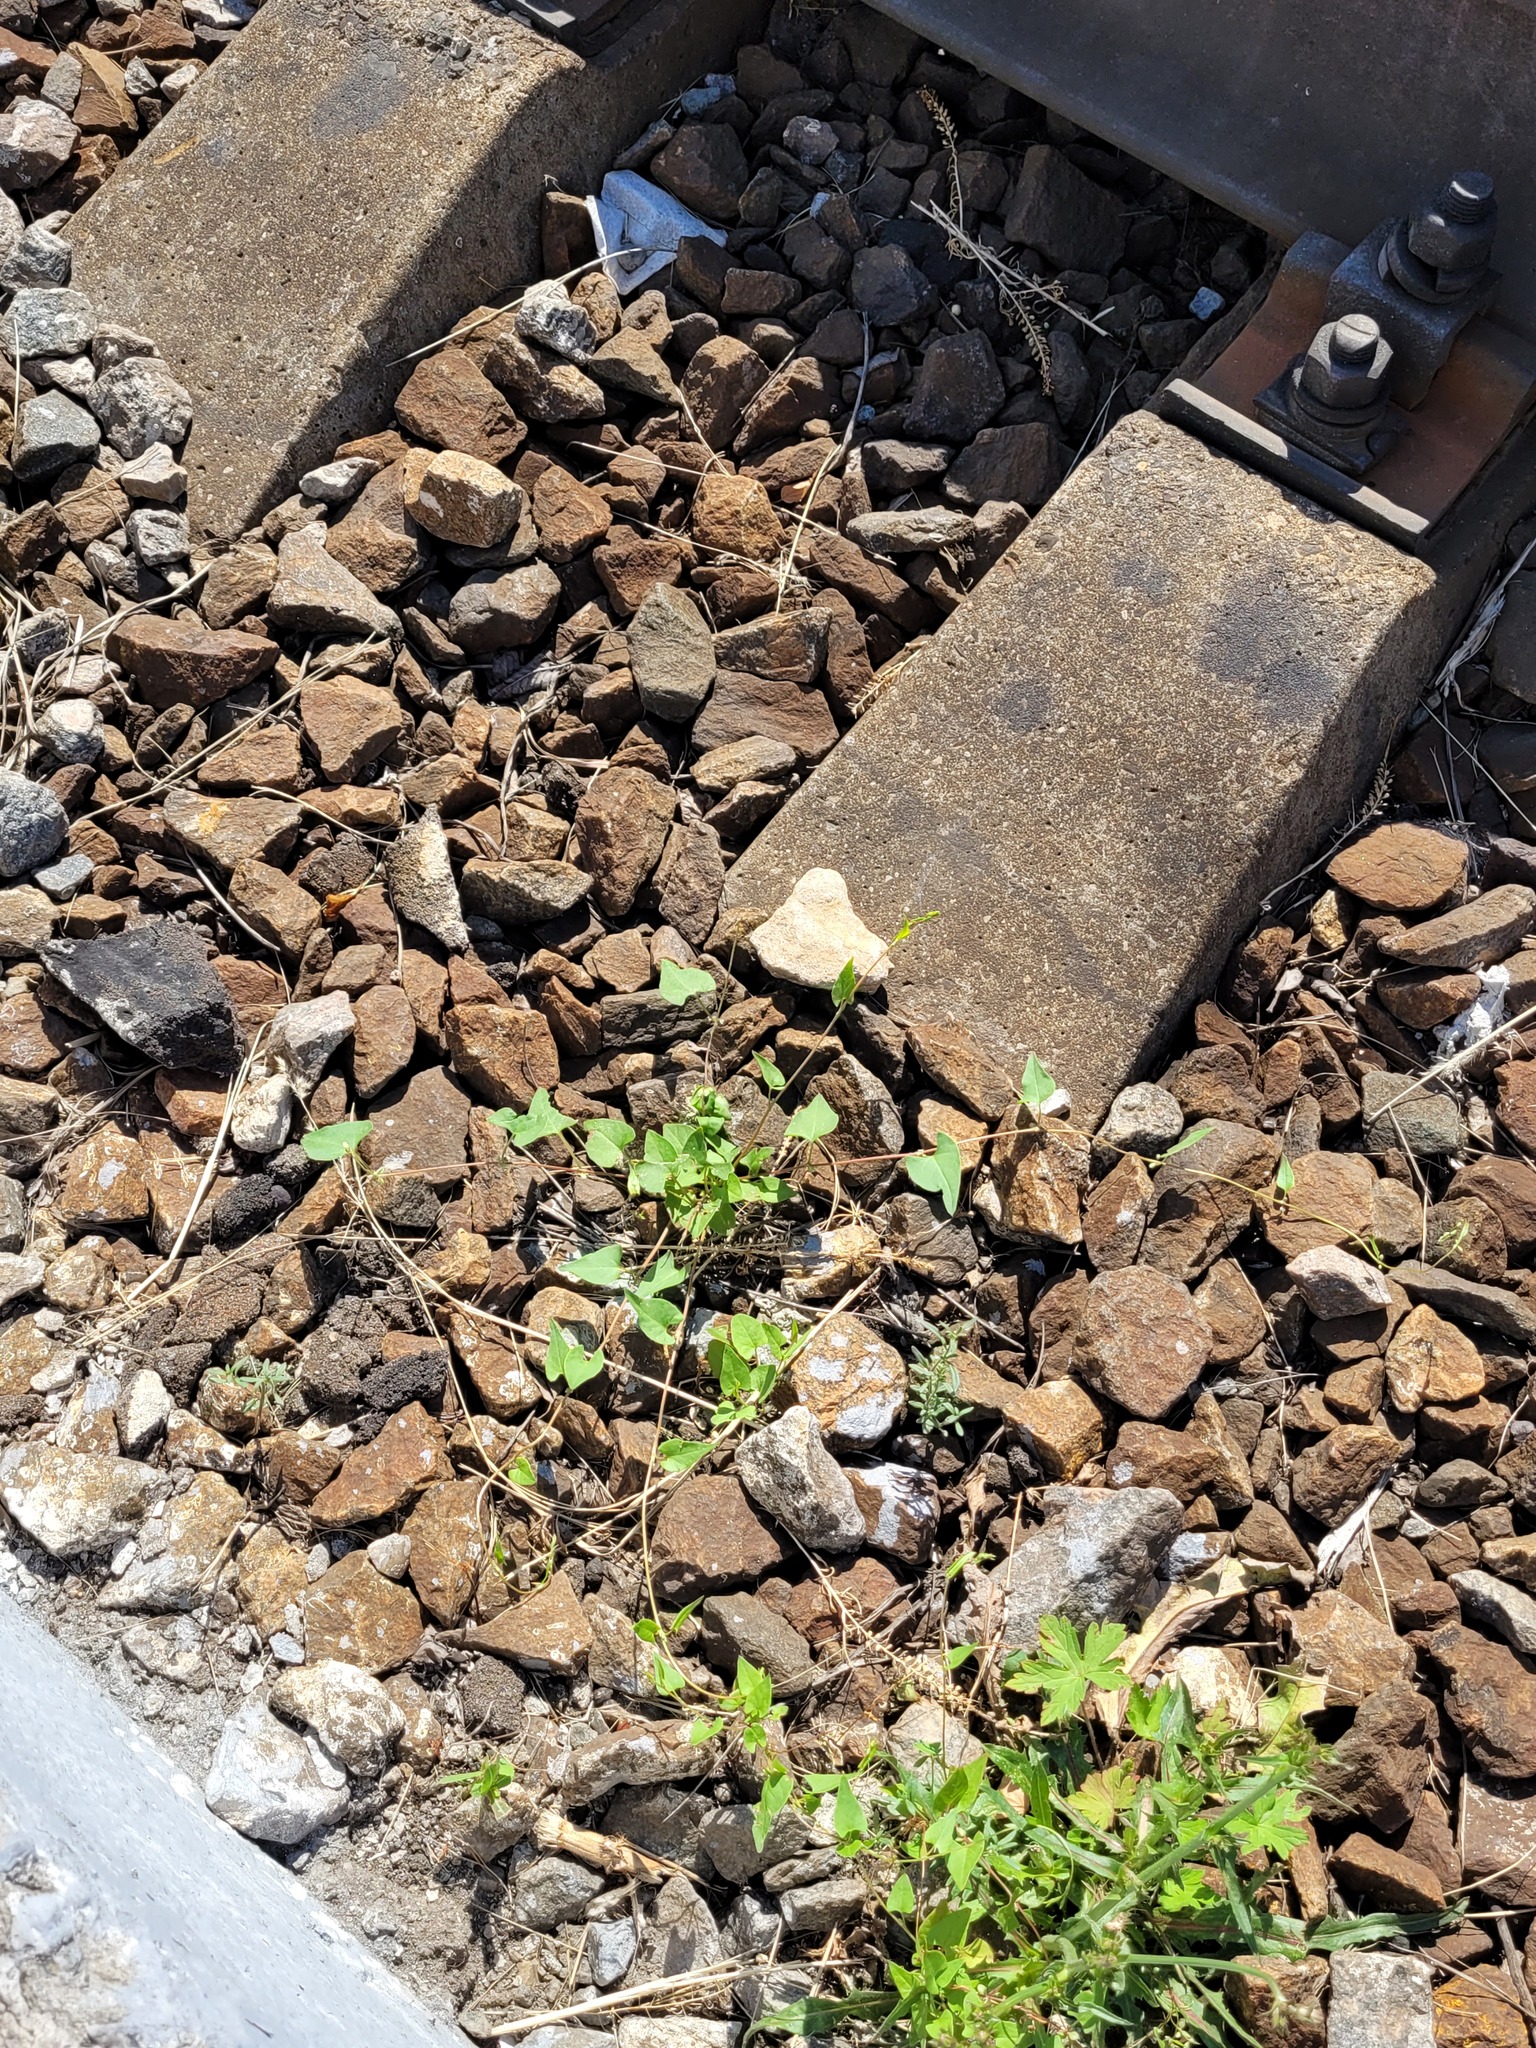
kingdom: Plantae
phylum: Tracheophyta
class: Magnoliopsida
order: Caryophyllales
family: Polygonaceae
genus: Fallopia
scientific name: Fallopia convolvulus
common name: Black bindweed
